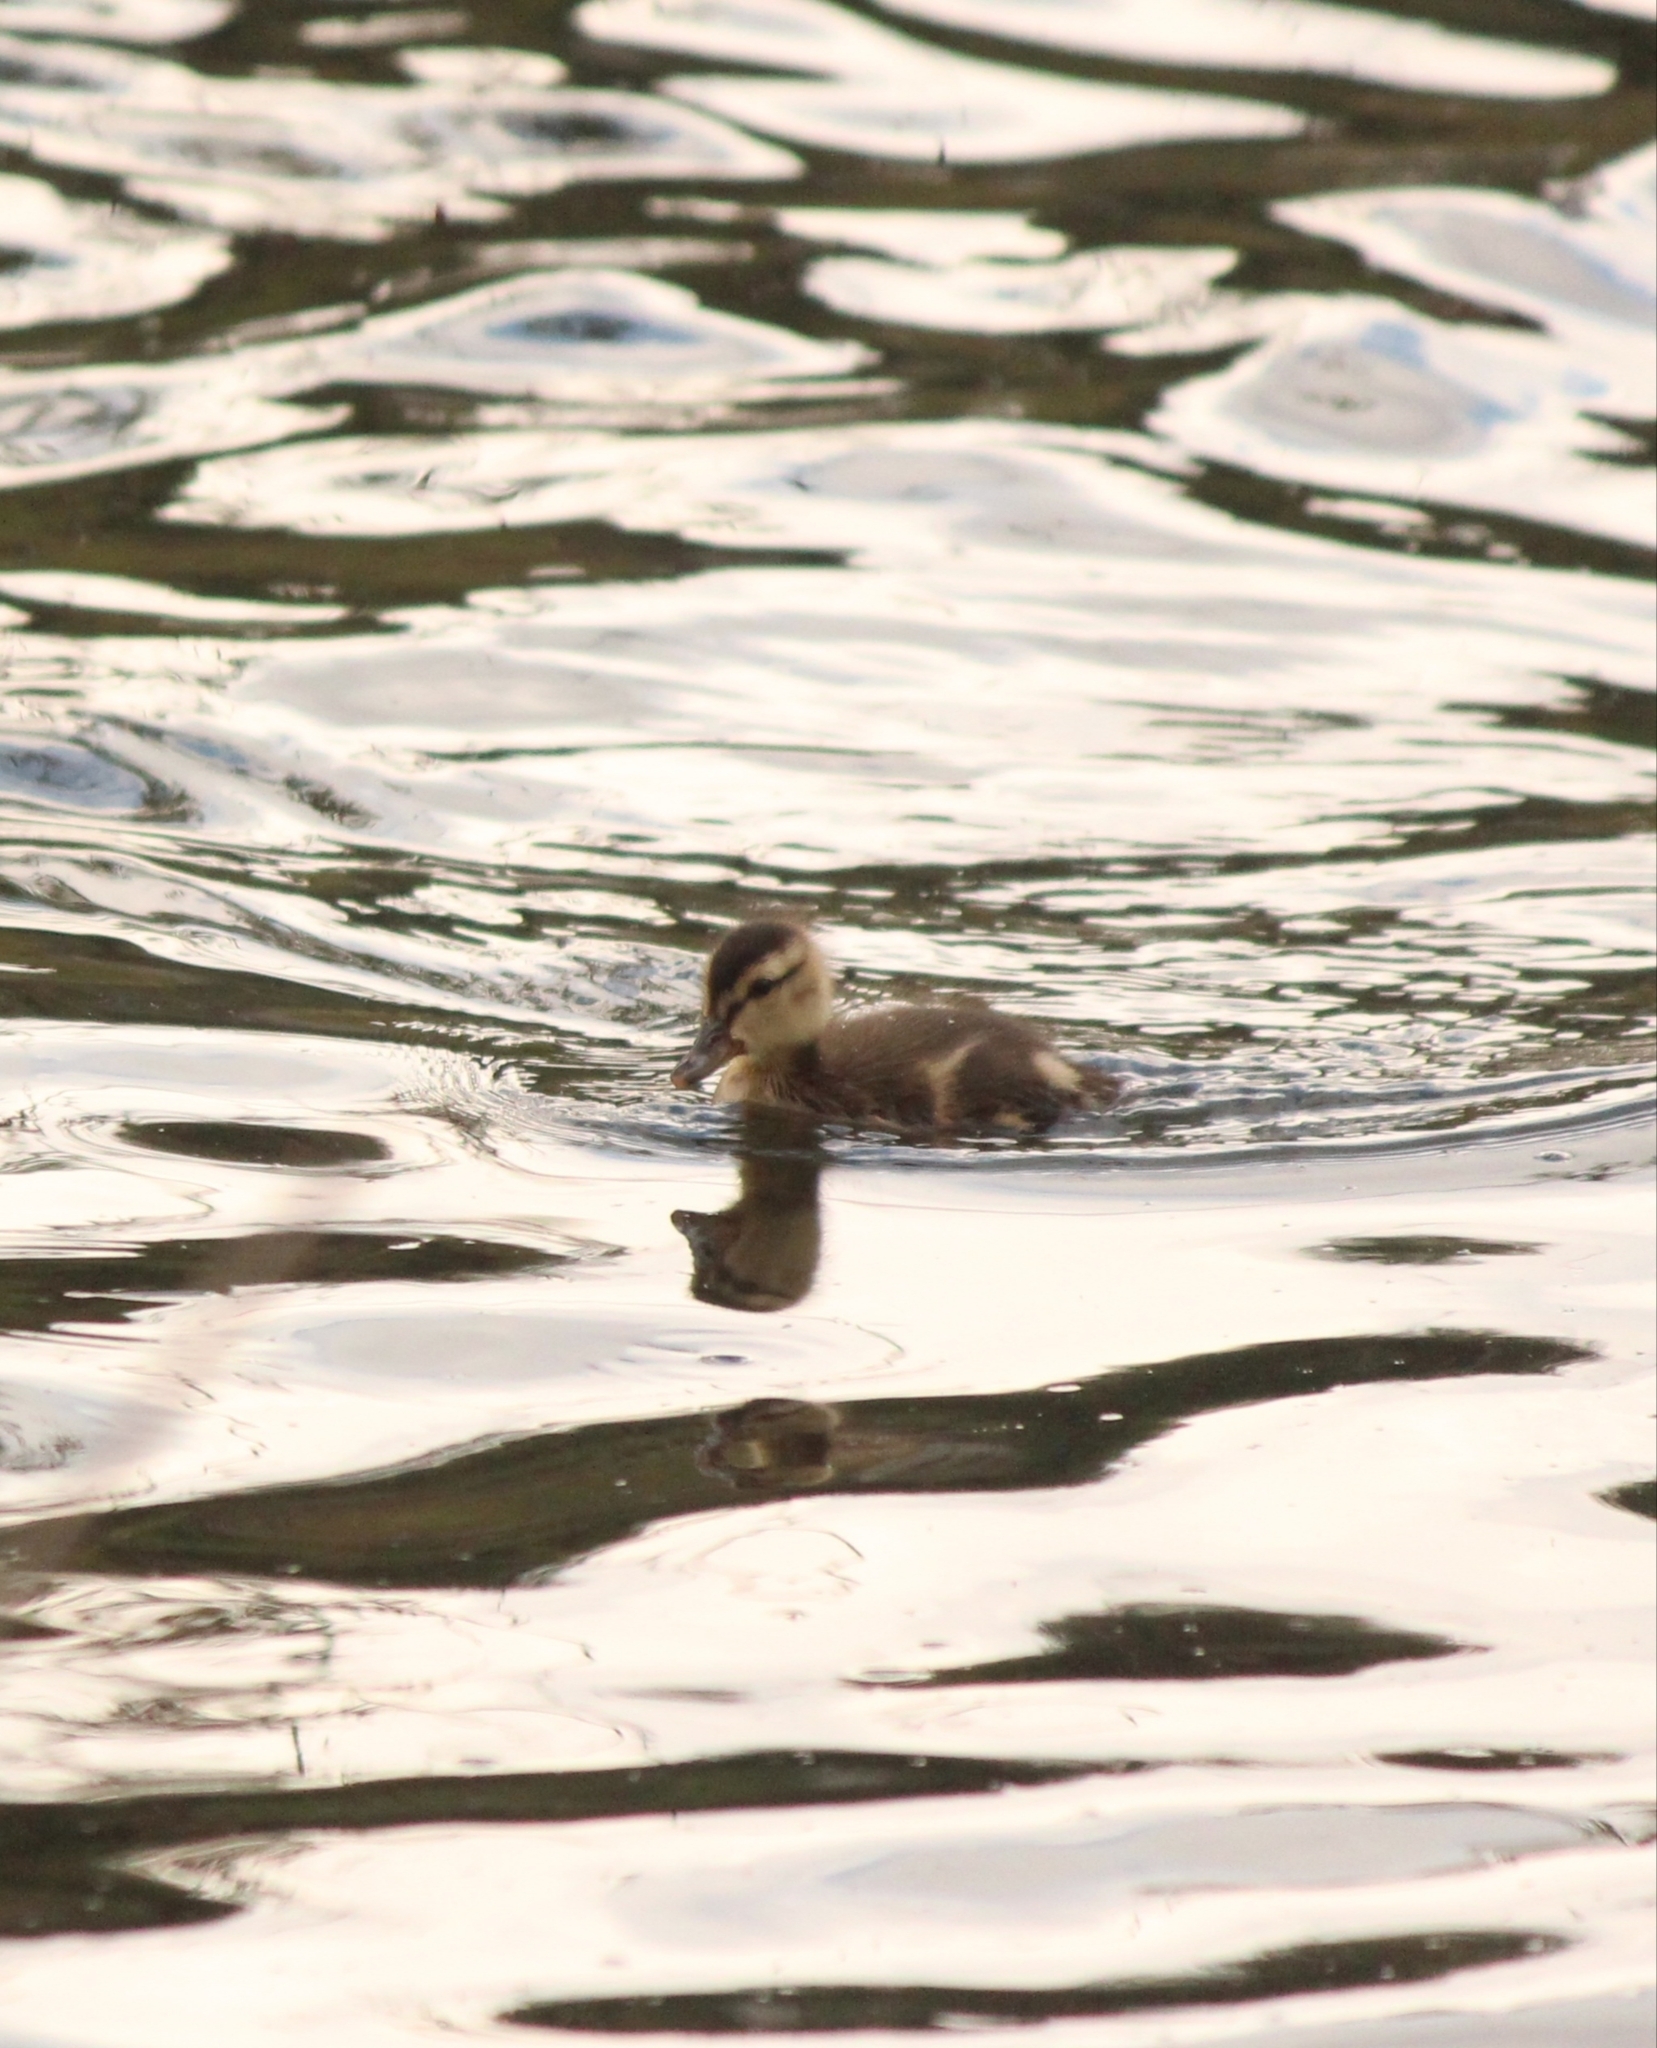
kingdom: Animalia
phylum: Chordata
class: Aves
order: Anseriformes
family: Anatidae
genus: Anas
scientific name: Anas platyrhynchos
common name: Mallard
